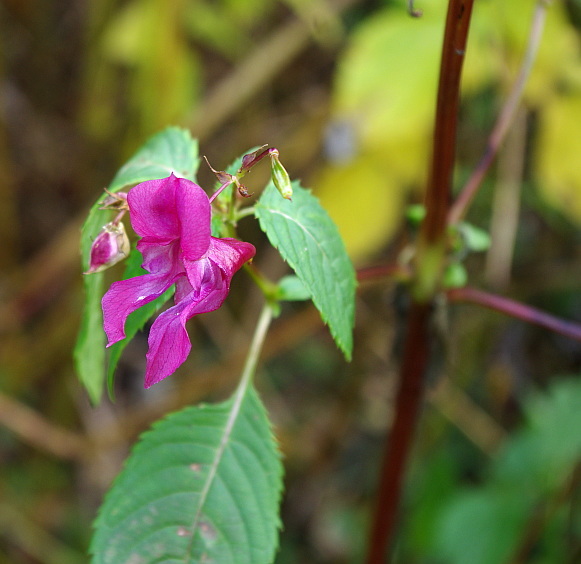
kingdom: Plantae
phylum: Tracheophyta
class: Magnoliopsida
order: Ericales
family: Balsaminaceae
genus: Impatiens
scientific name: Impatiens glandulifera
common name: Himalayan balsam
